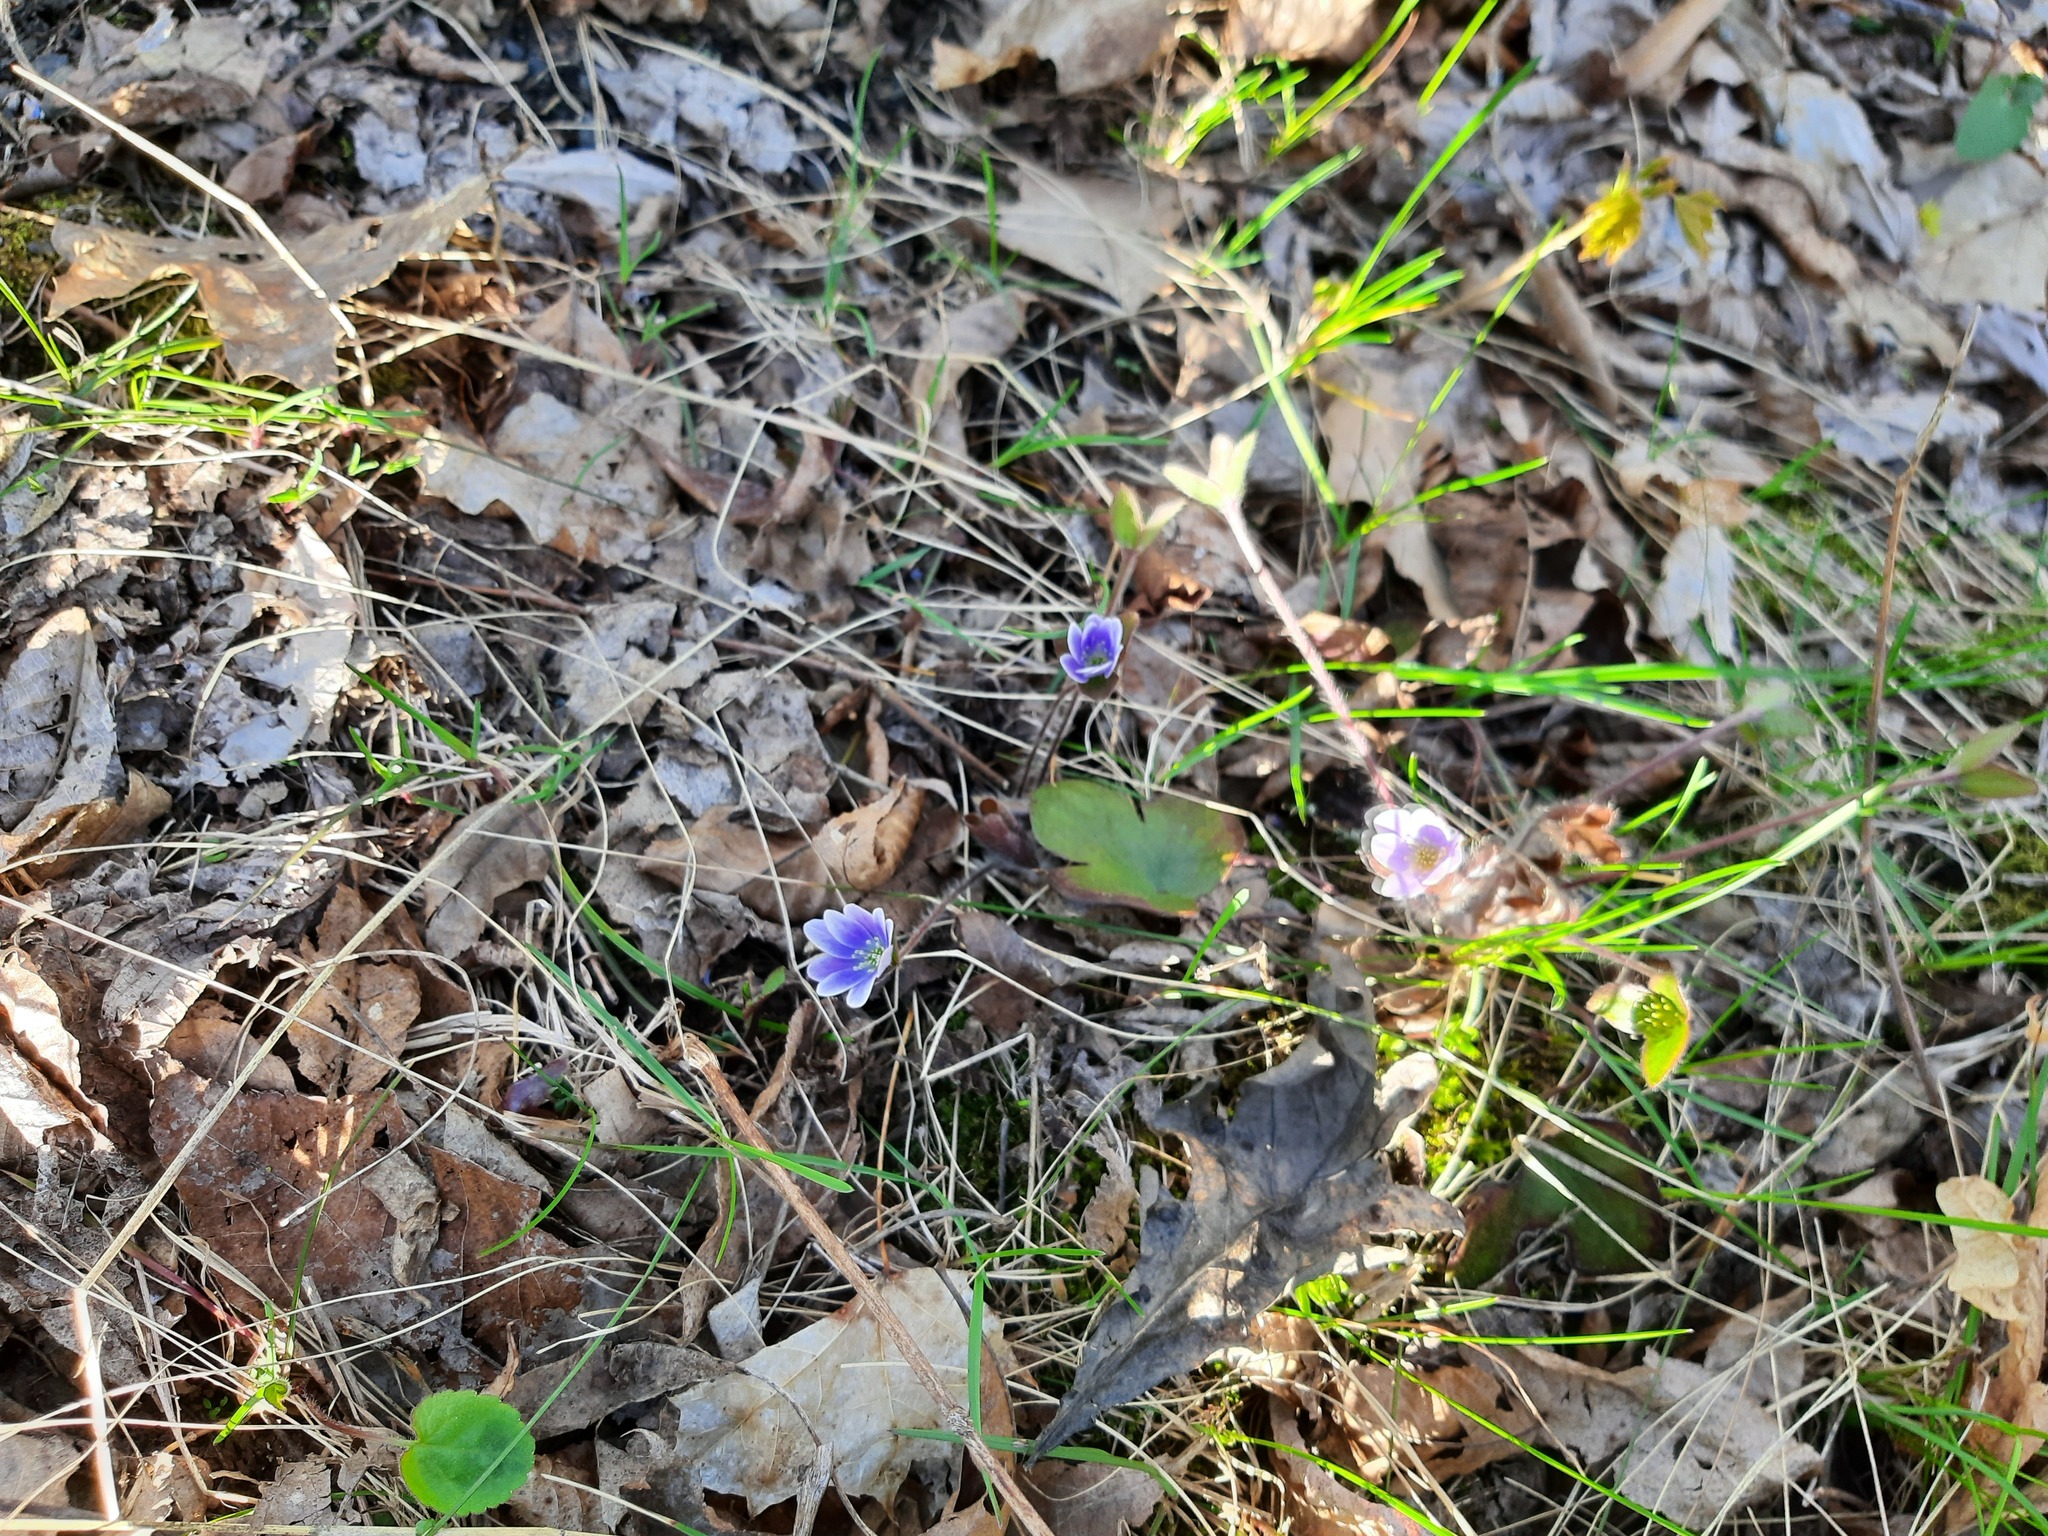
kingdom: Plantae
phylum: Tracheophyta
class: Magnoliopsida
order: Ranunculales
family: Ranunculaceae
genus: Hepatica
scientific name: Hepatica americana
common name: American hepatica
